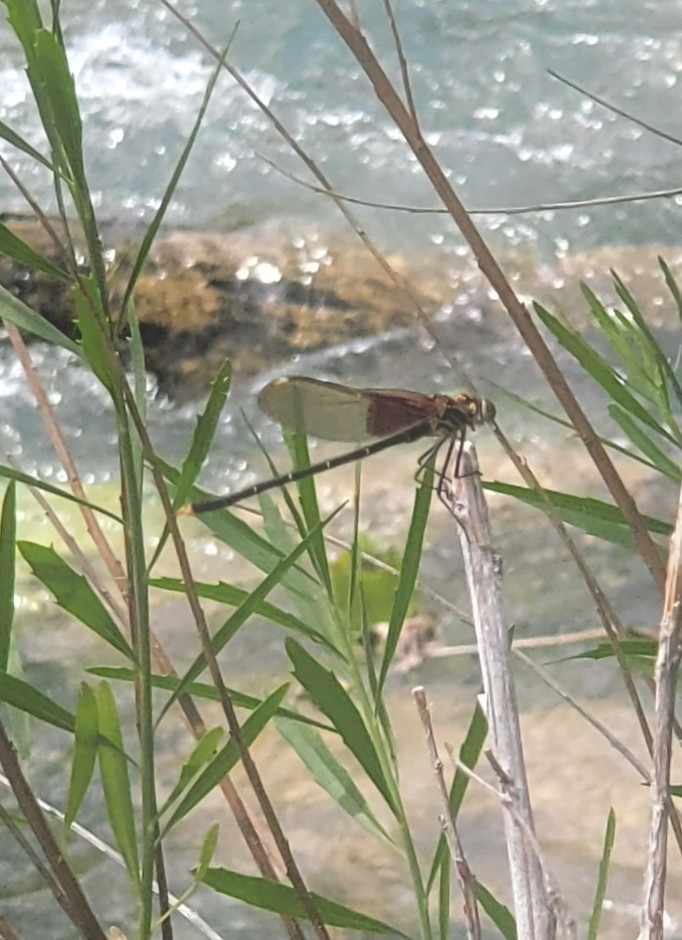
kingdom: Animalia
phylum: Arthropoda
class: Insecta
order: Odonata
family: Calopterygidae
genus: Hetaerina
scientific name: Hetaerina americana
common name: American rubyspot
